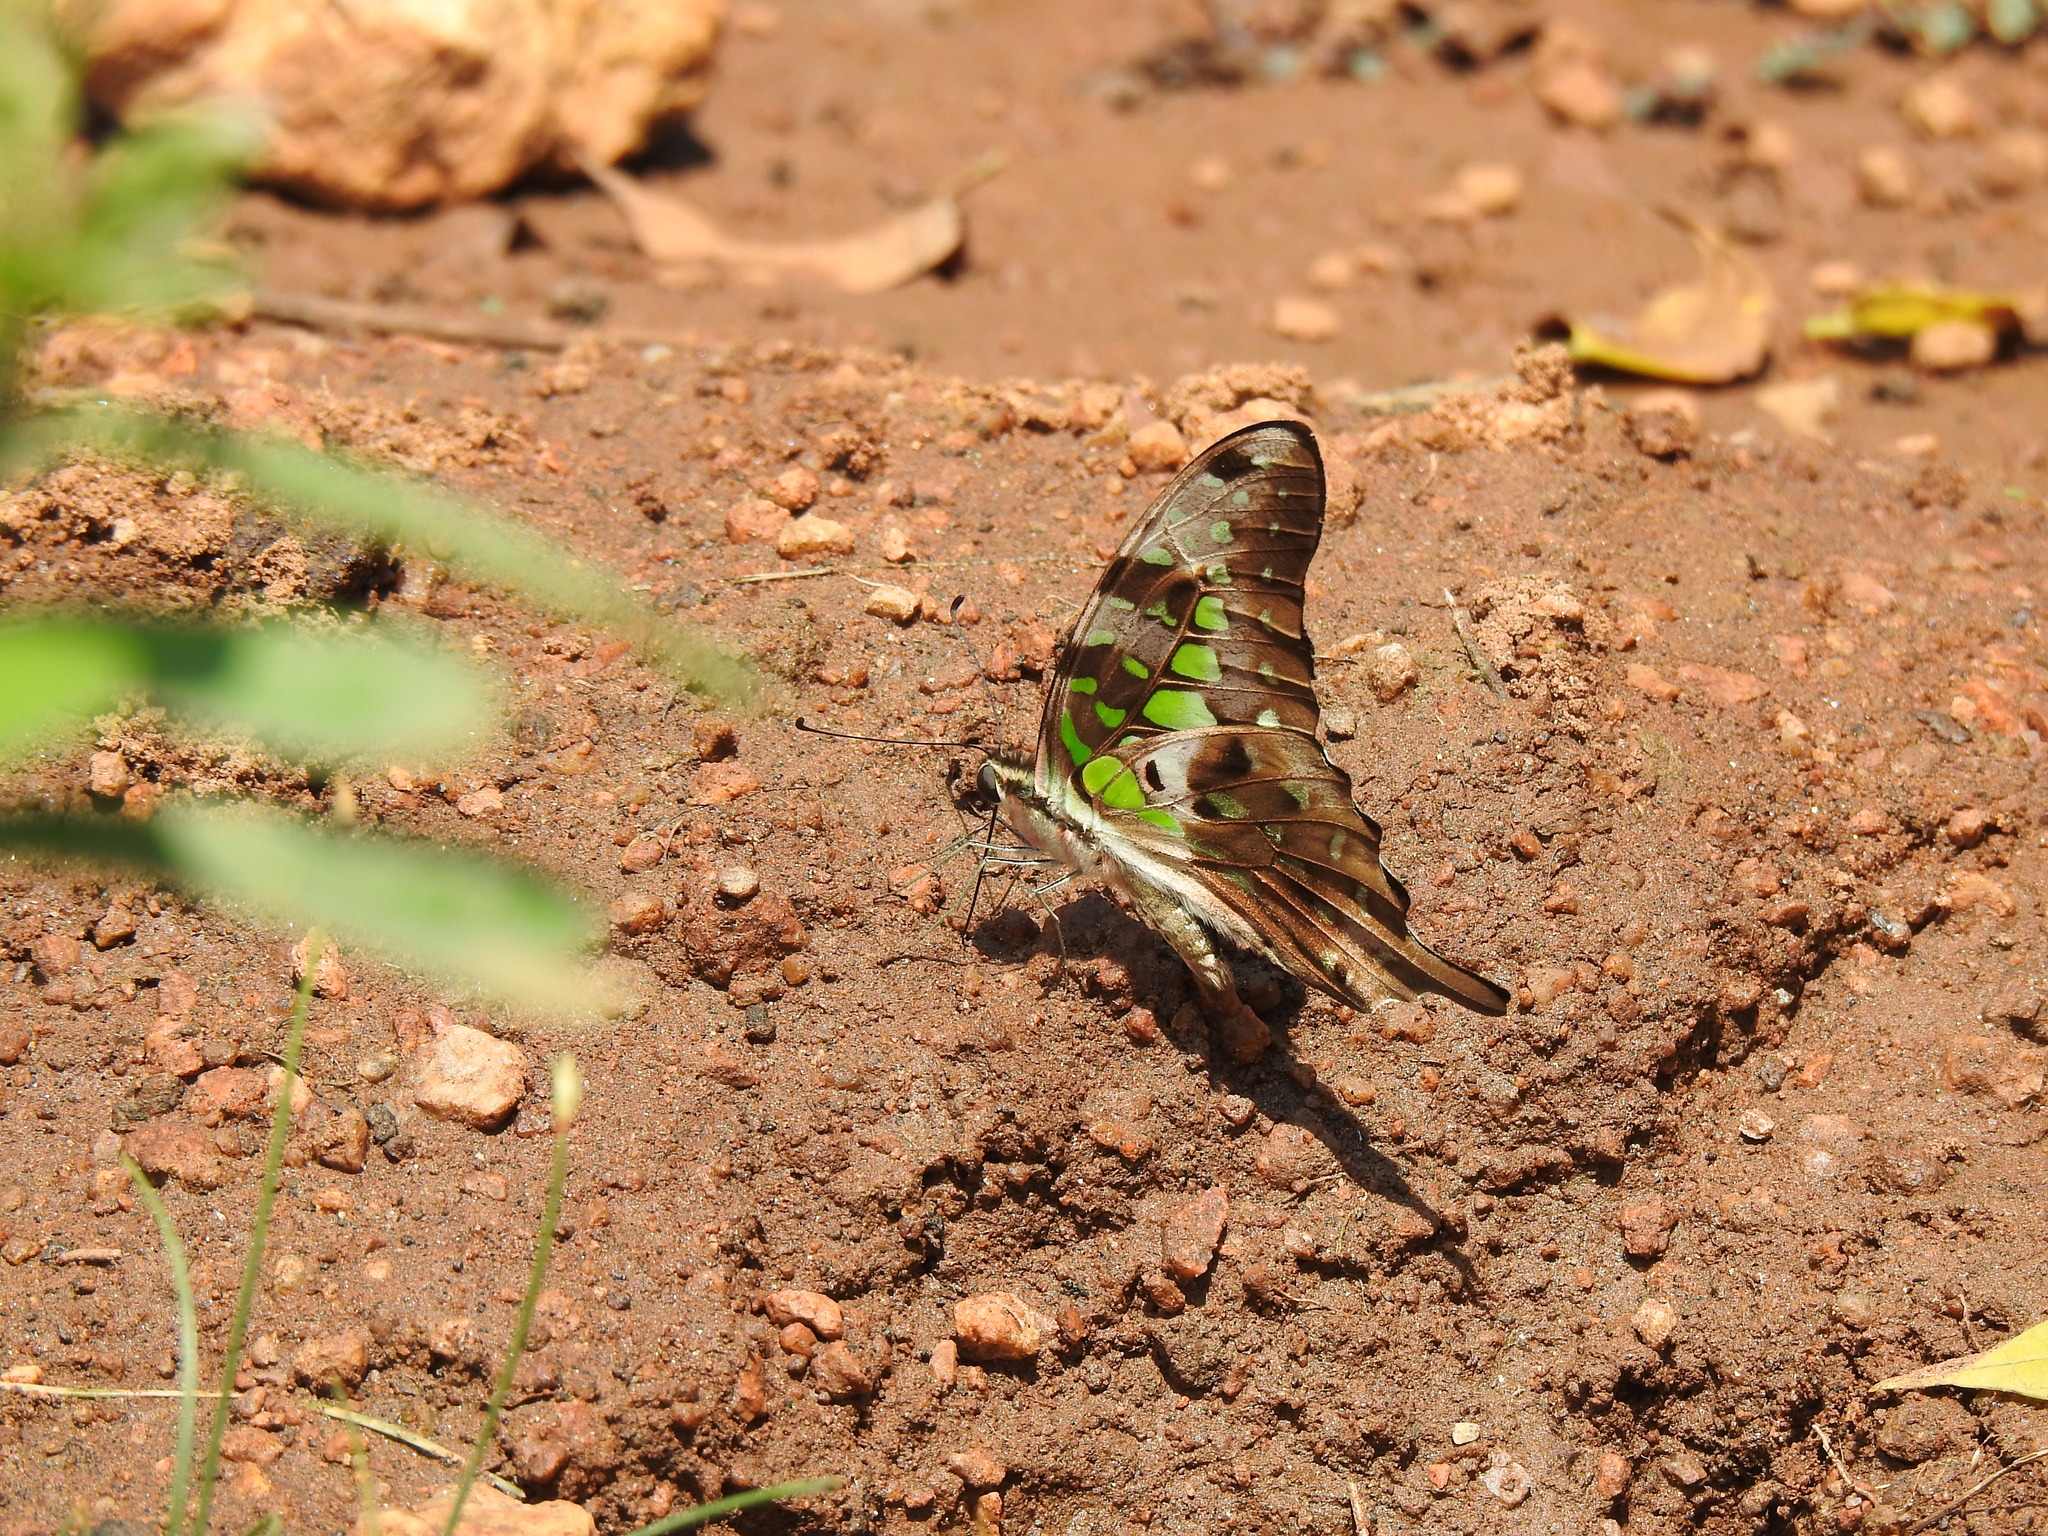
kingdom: Animalia
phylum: Arthropoda
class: Insecta
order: Lepidoptera
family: Papilionidae
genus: Graphium
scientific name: Graphium agamemnon
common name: Tailed jay
